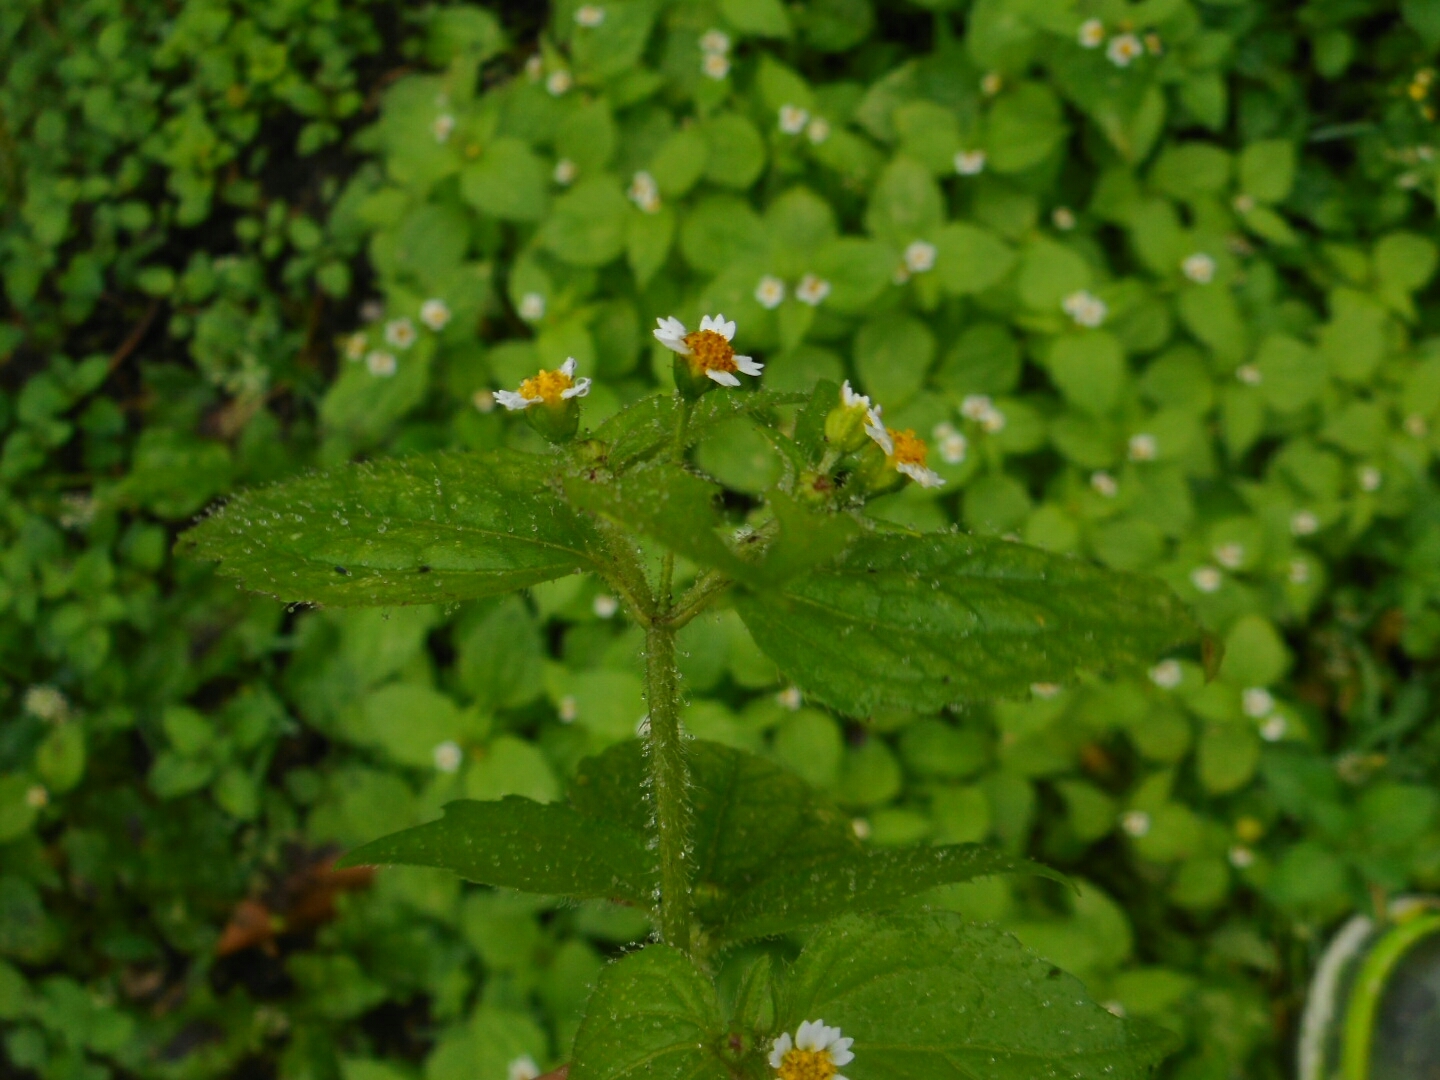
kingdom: Plantae
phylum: Tracheophyta
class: Magnoliopsida
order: Asterales
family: Asteraceae
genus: Galinsoga
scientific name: Galinsoga quadriradiata
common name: Shaggy soldier
